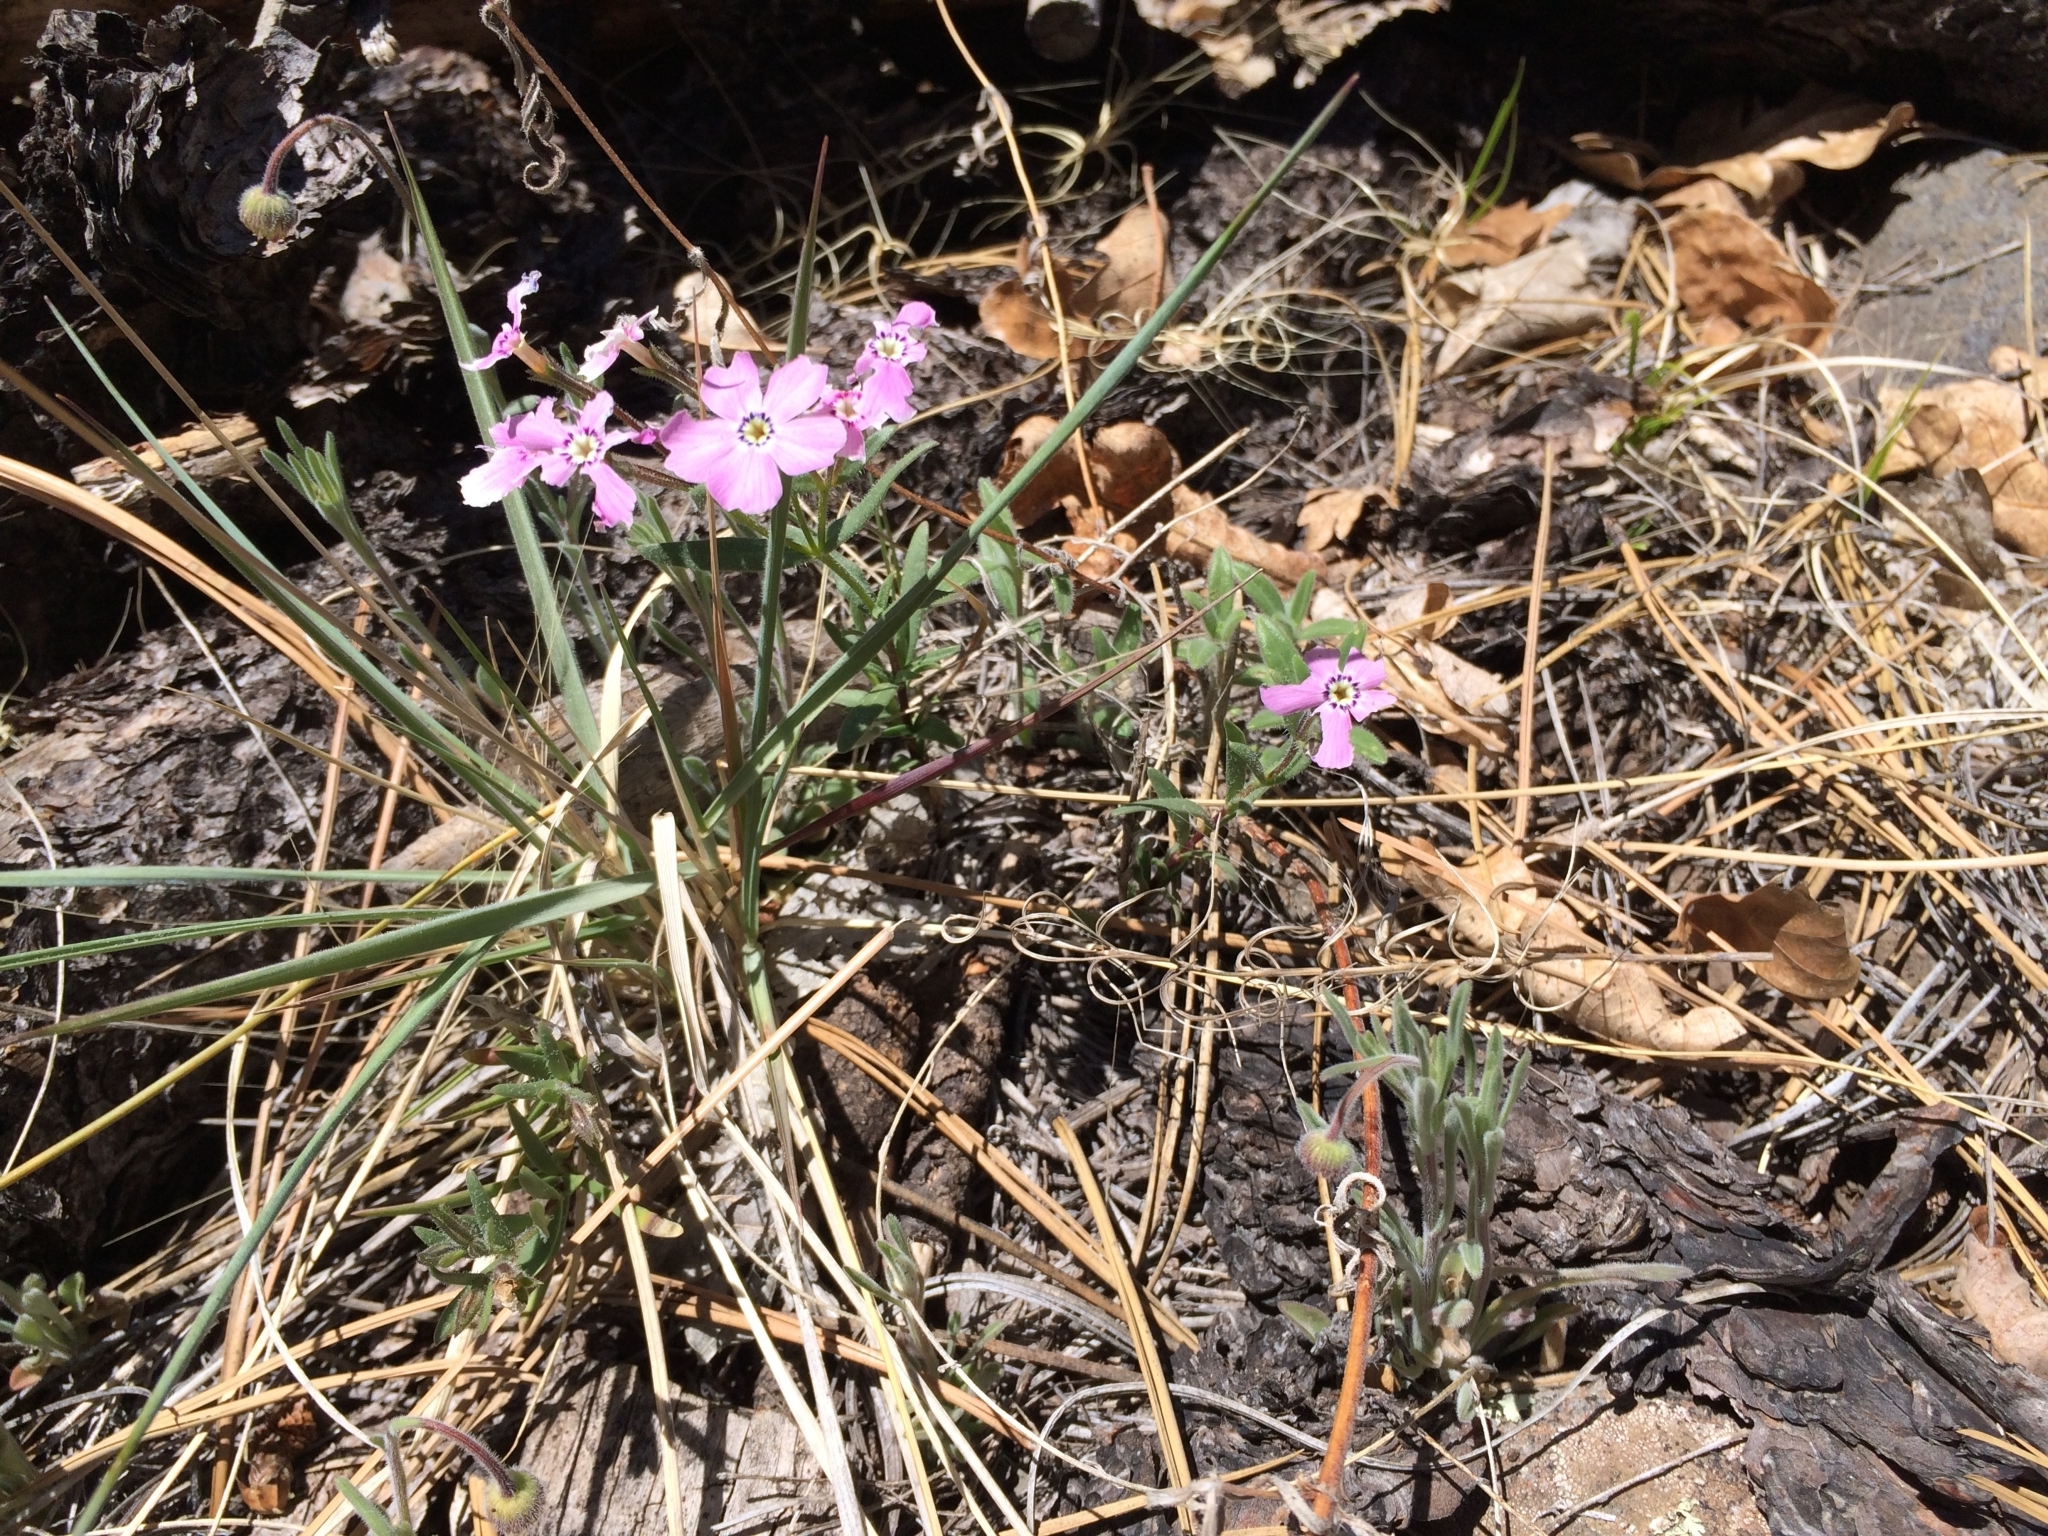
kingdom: Plantae
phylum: Tracheophyta
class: Magnoliopsida
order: Ericales
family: Polemoniaceae
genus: Phlox
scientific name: Phlox woodhousei
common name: Star phlox
